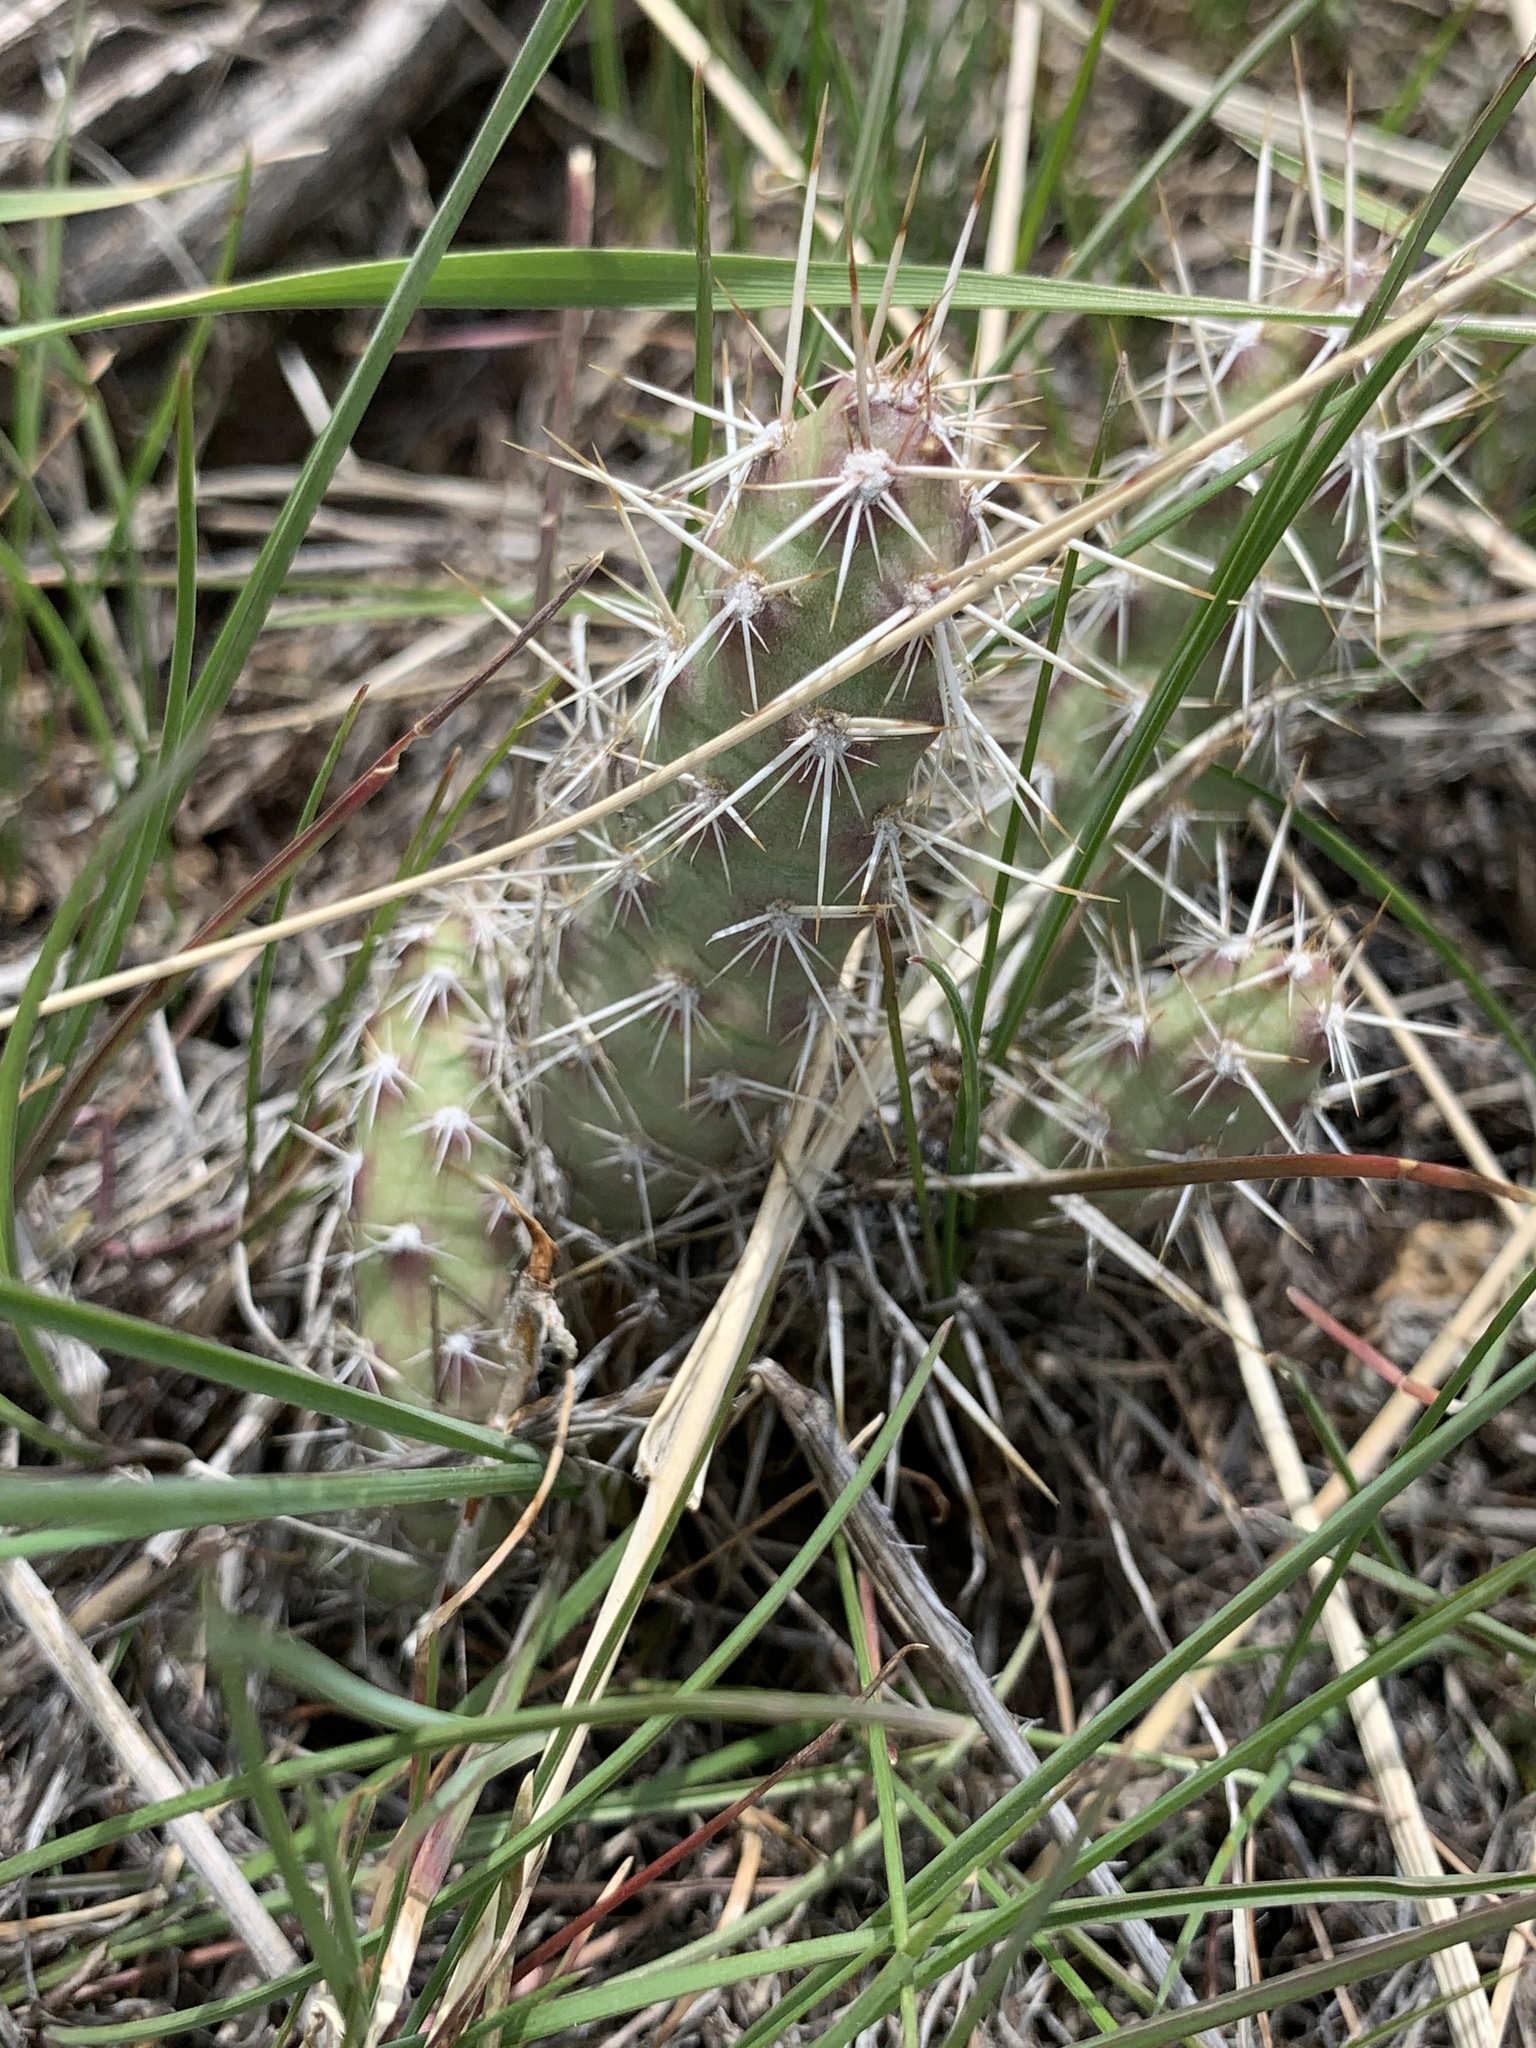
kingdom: Plantae
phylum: Tracheophyta
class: Magnoliopsida
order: Caryophyllales
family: Cactaceae
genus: Opuntia
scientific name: Opuntia fragilis
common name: Brittle cactus
